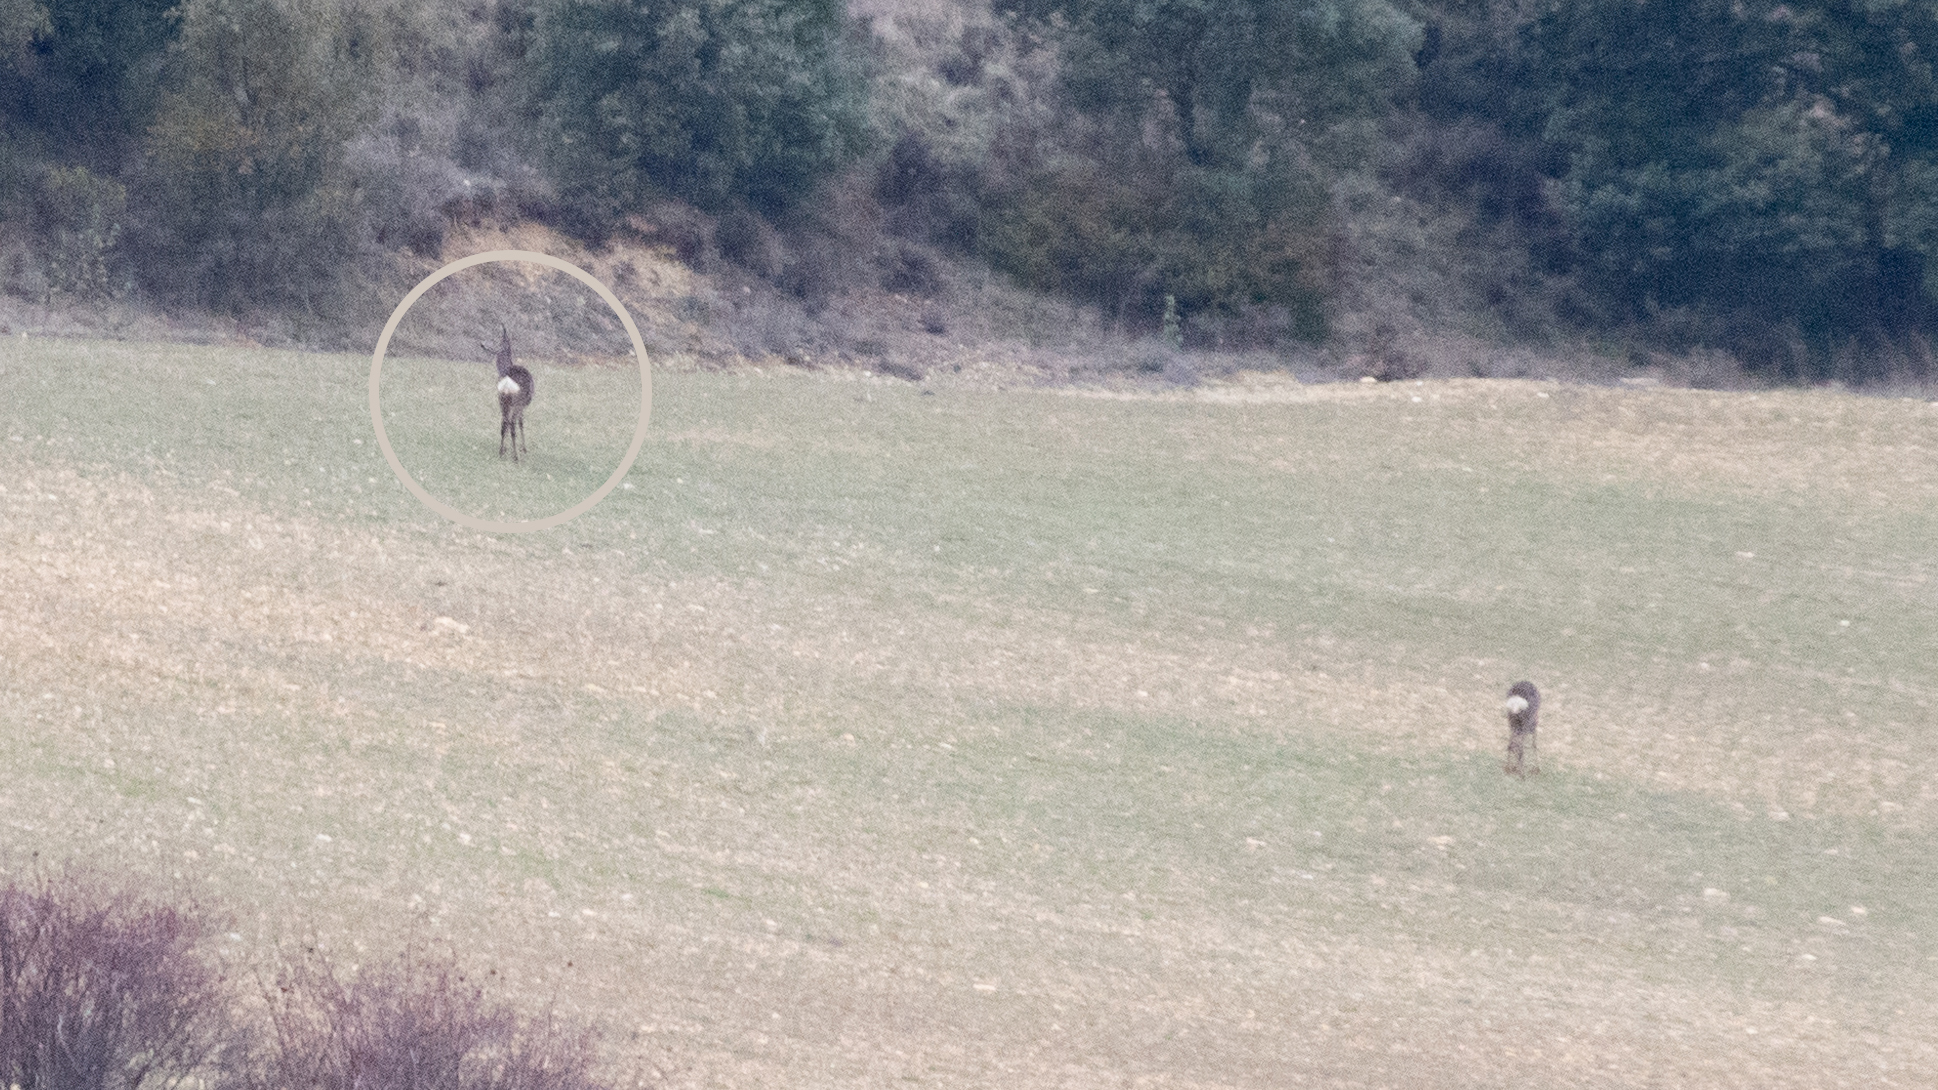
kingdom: Animalia
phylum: Chordata
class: Mammalia
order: Artiodactyla
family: Cervidae
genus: Capreolus
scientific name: Capreolus capreolus
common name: Western roe deer
